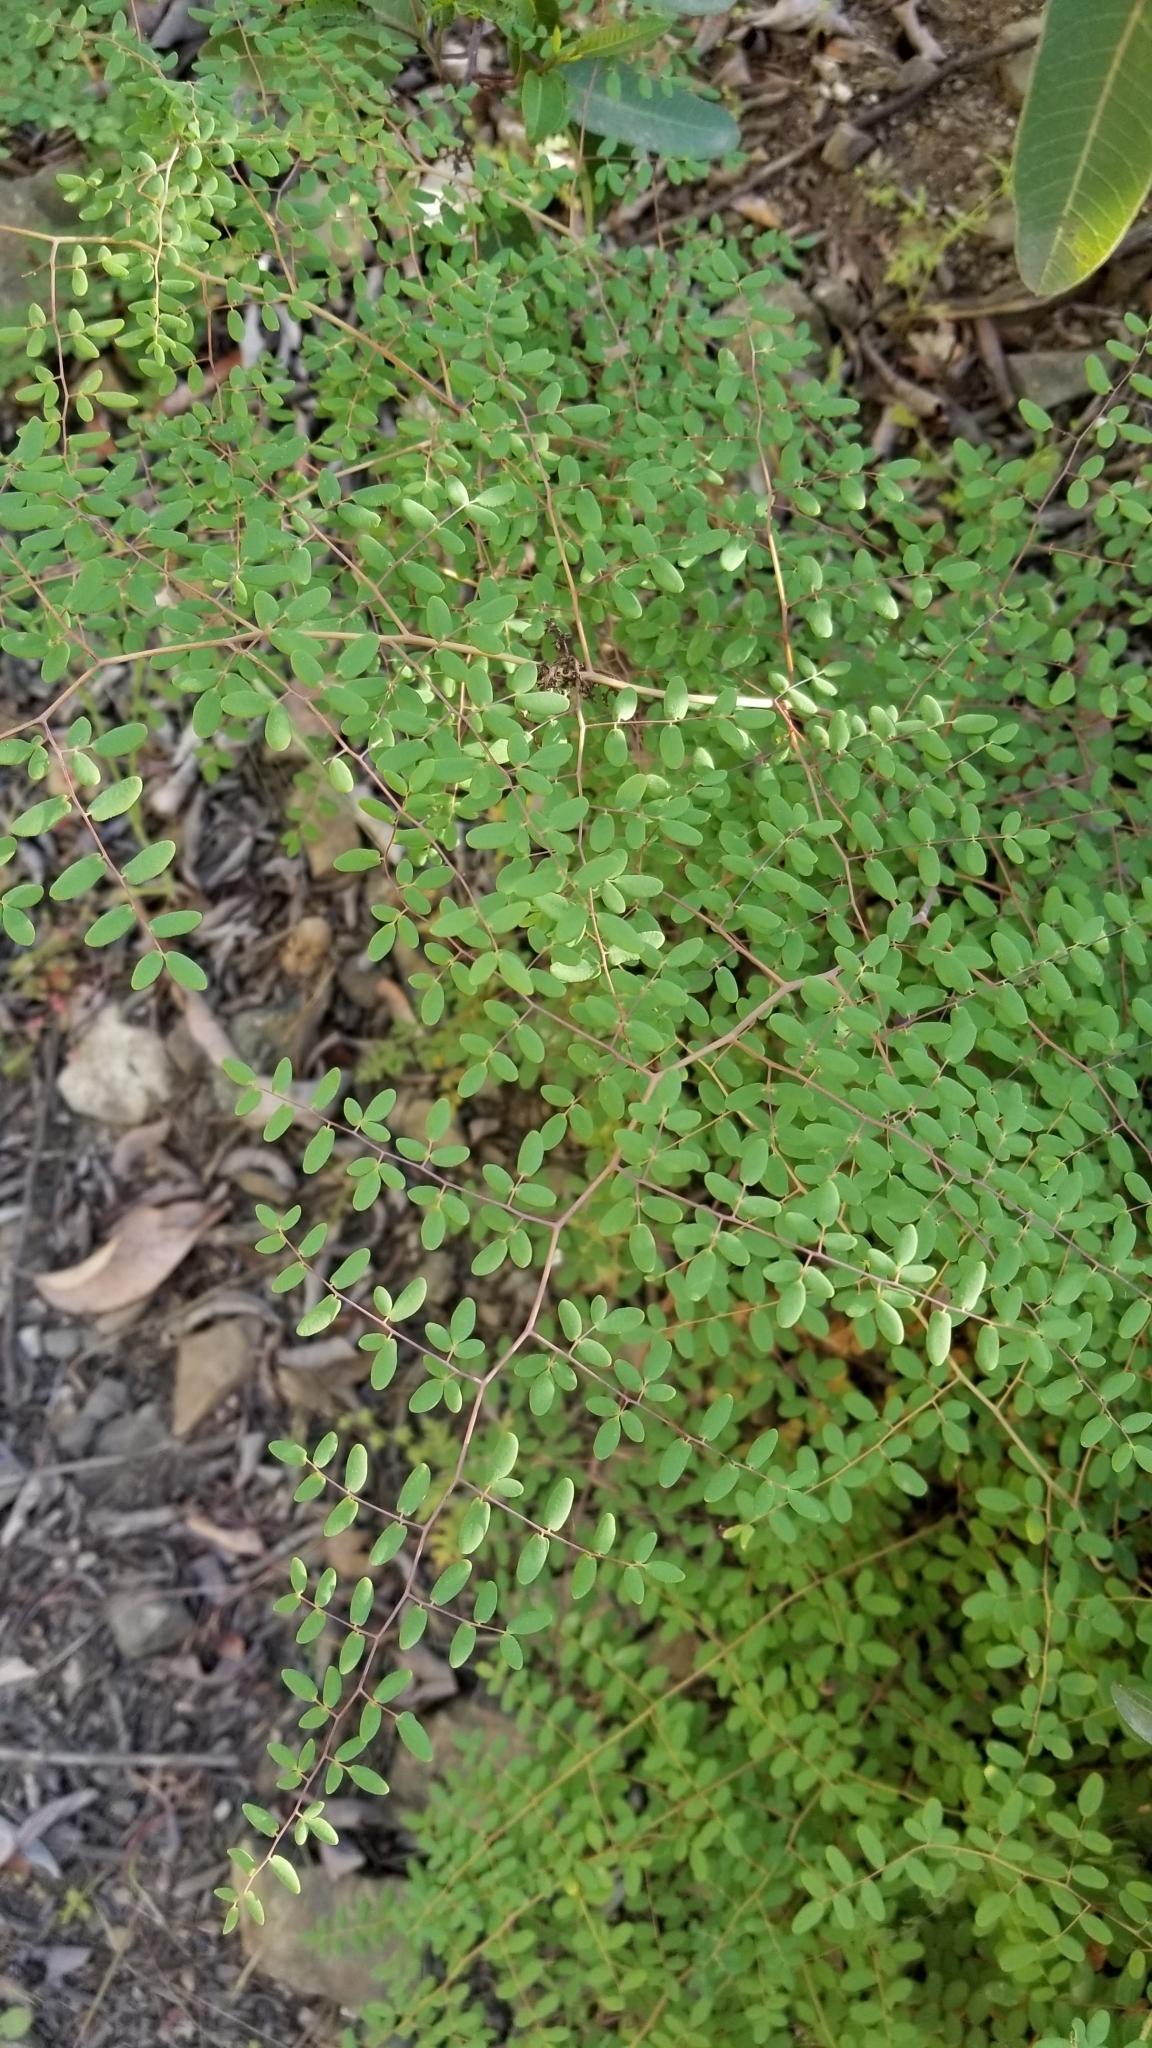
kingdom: Plantae
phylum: Tracheophyta
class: Polypodiopsida
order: Polypodiales
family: Pteridaceae
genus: Pellaea
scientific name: Pellaea andromedifolia
